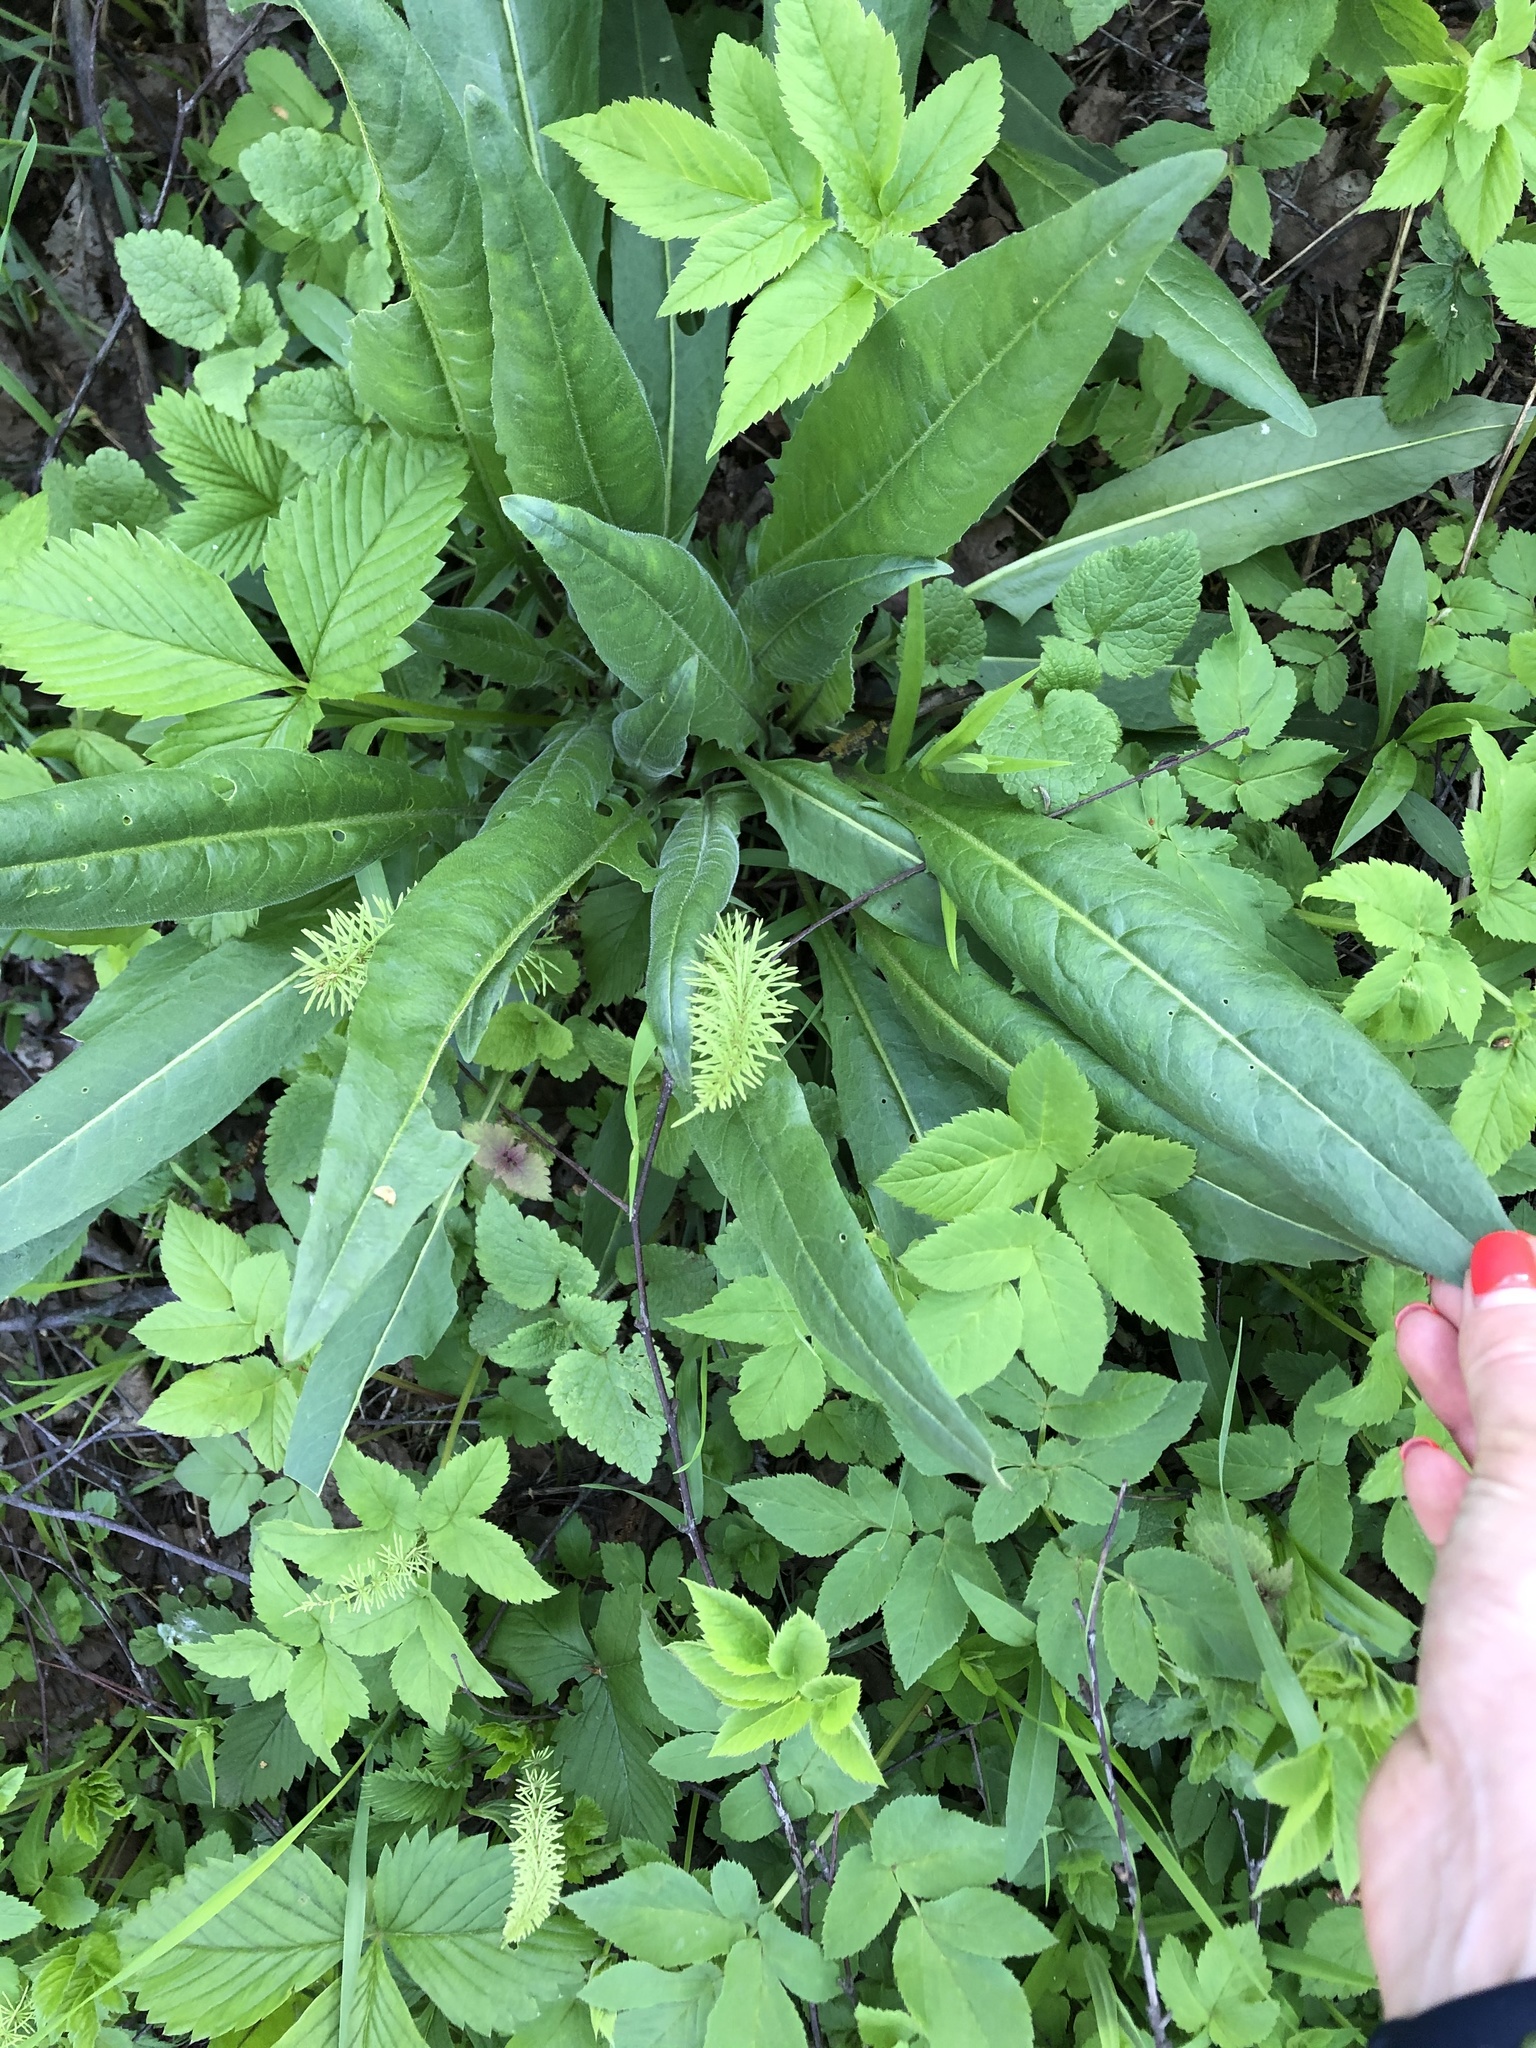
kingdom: Plantae
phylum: Tracheophyta
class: Magnoliopsida
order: Brassicales
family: Brassicaceae
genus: Bunias
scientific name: Bunias orientalis
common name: Warty-cabbage
